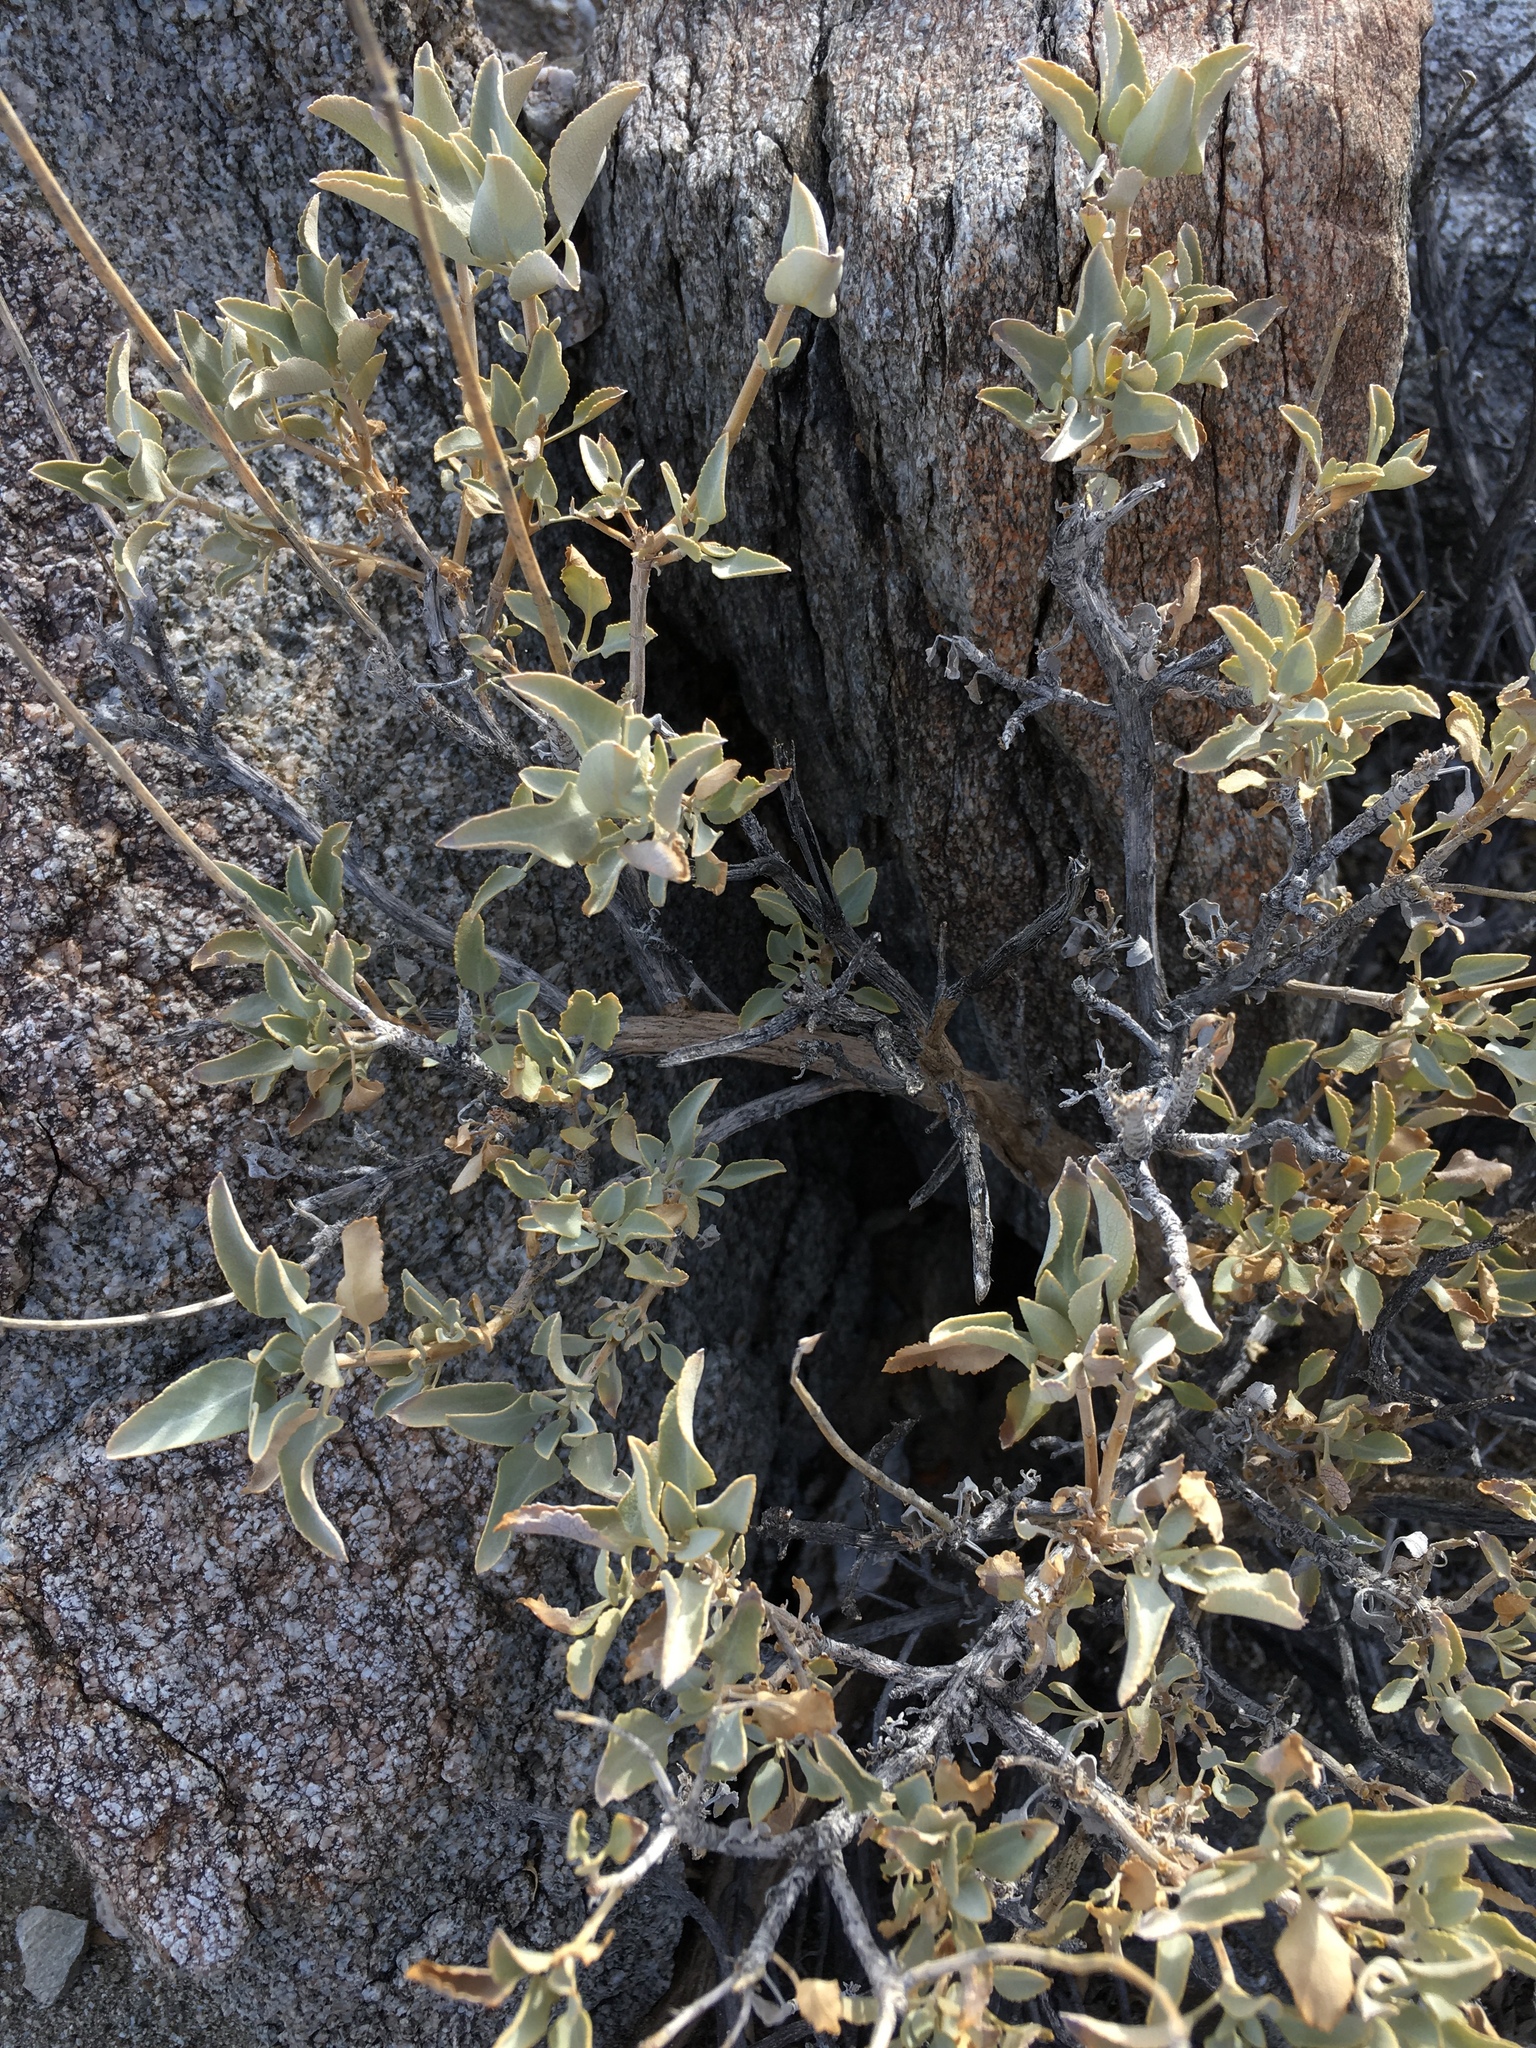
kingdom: Plantae
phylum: Tracheophyta
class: Magnoliopsida
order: Lamiales
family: Lamiaceae
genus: Salvia
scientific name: Salvia vaseyi
